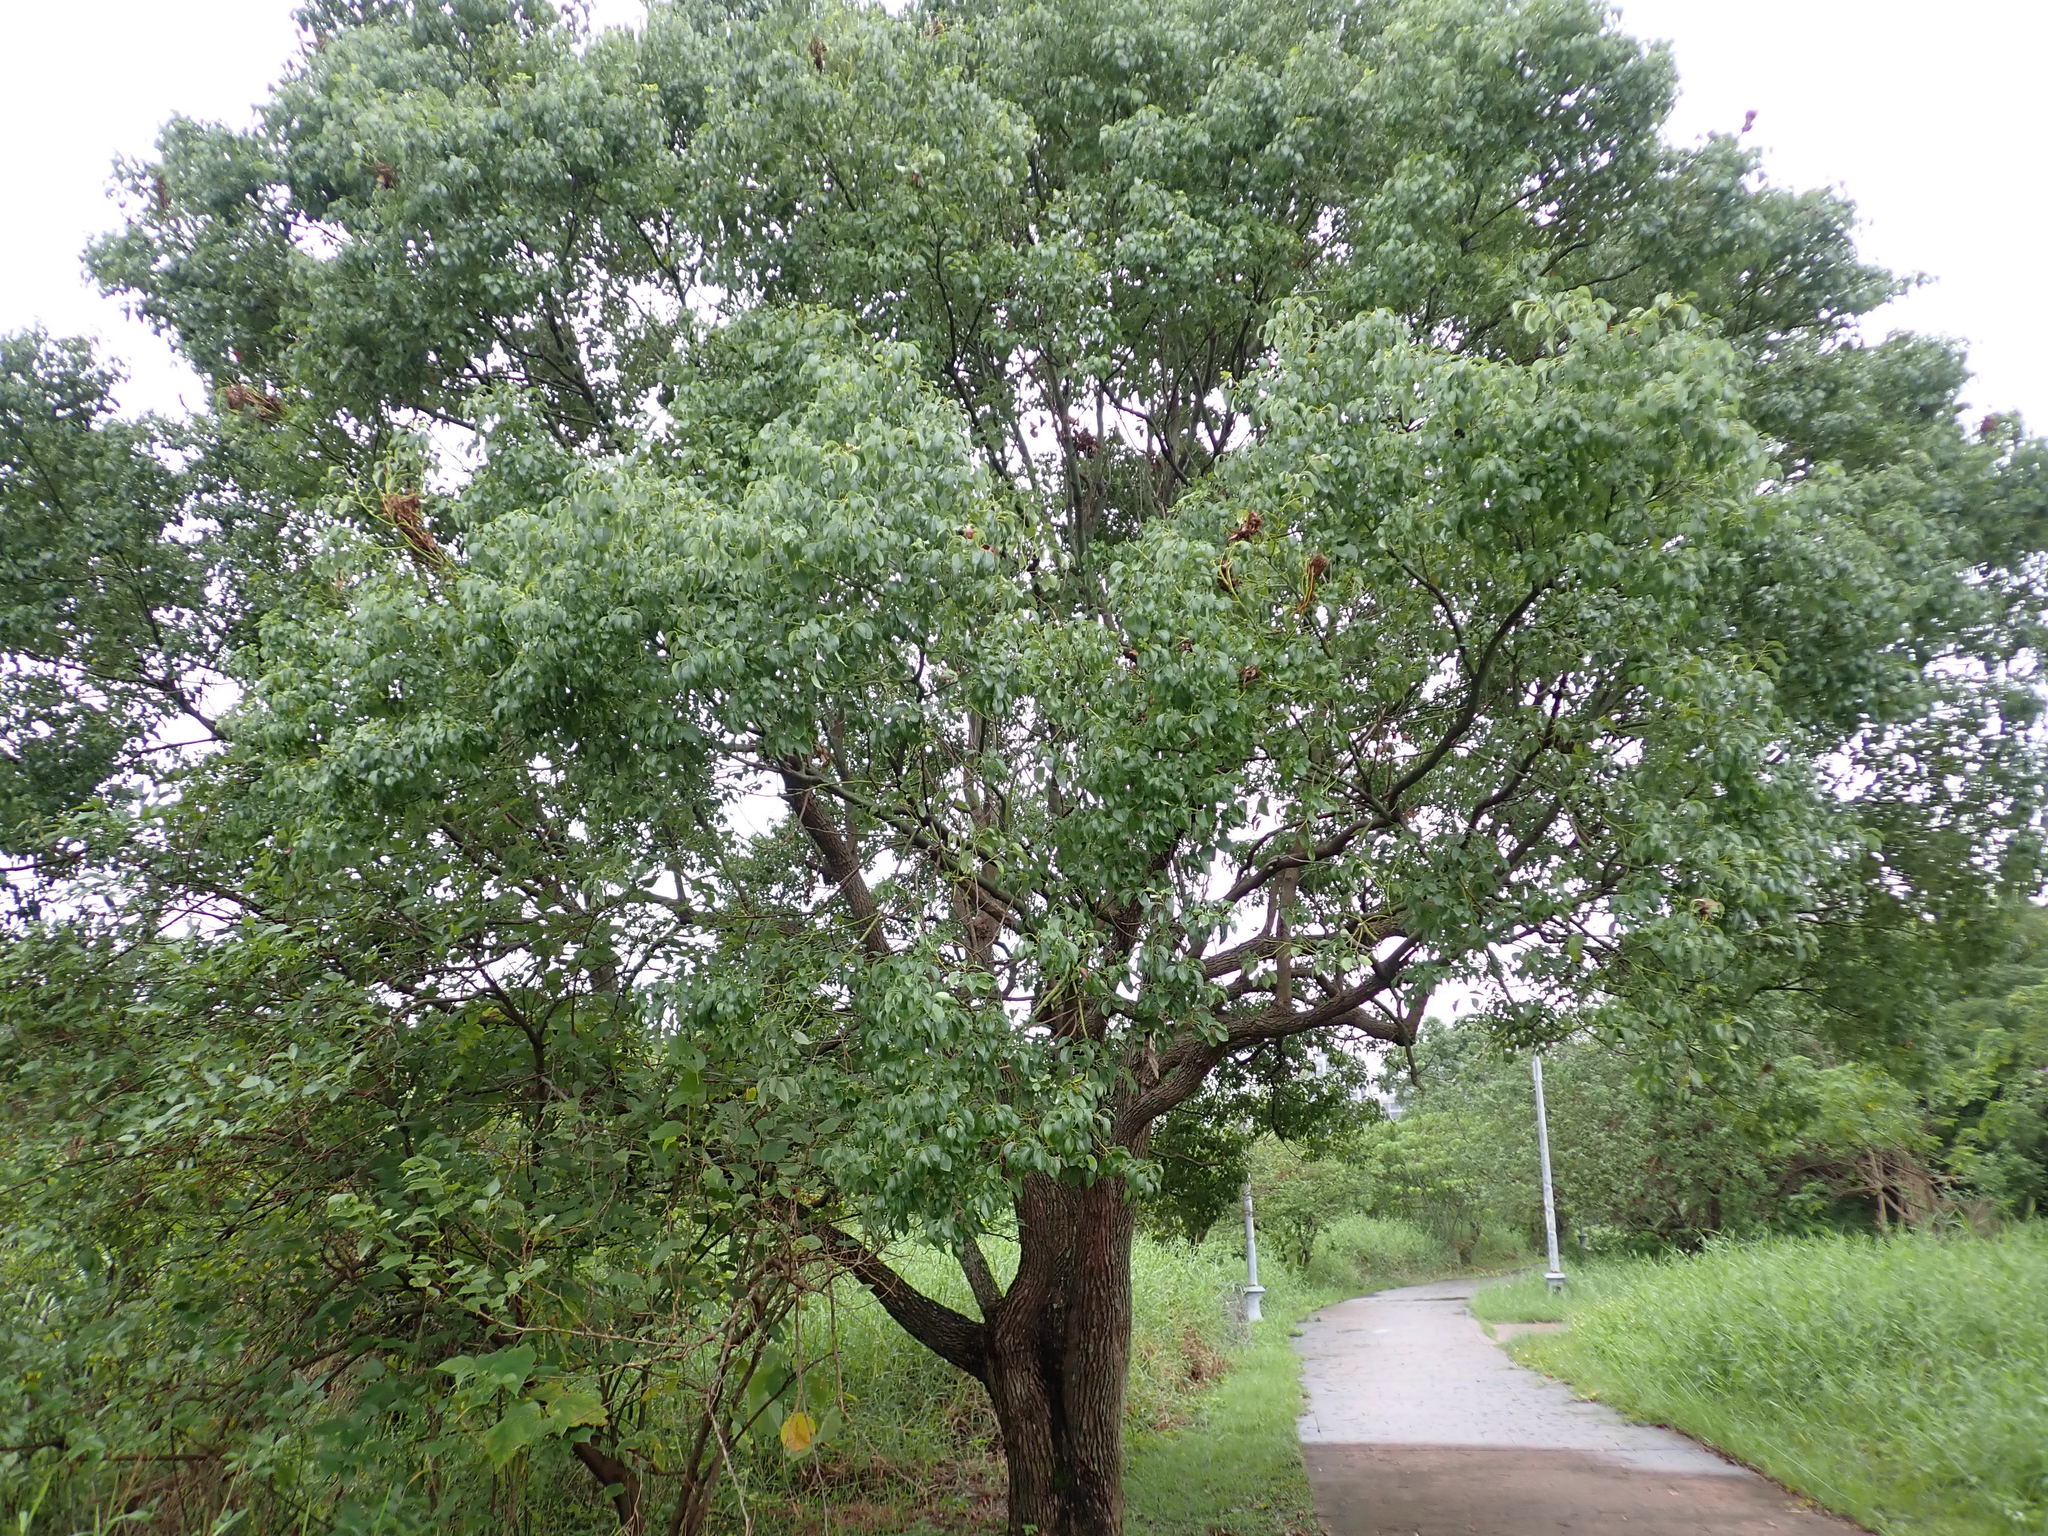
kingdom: Plantae
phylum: Tracheophyta
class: Magnoliopsida
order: Laurales
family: Lauraceae
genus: Cinnamomum
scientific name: Cinnamomum camphora
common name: Camphortree
